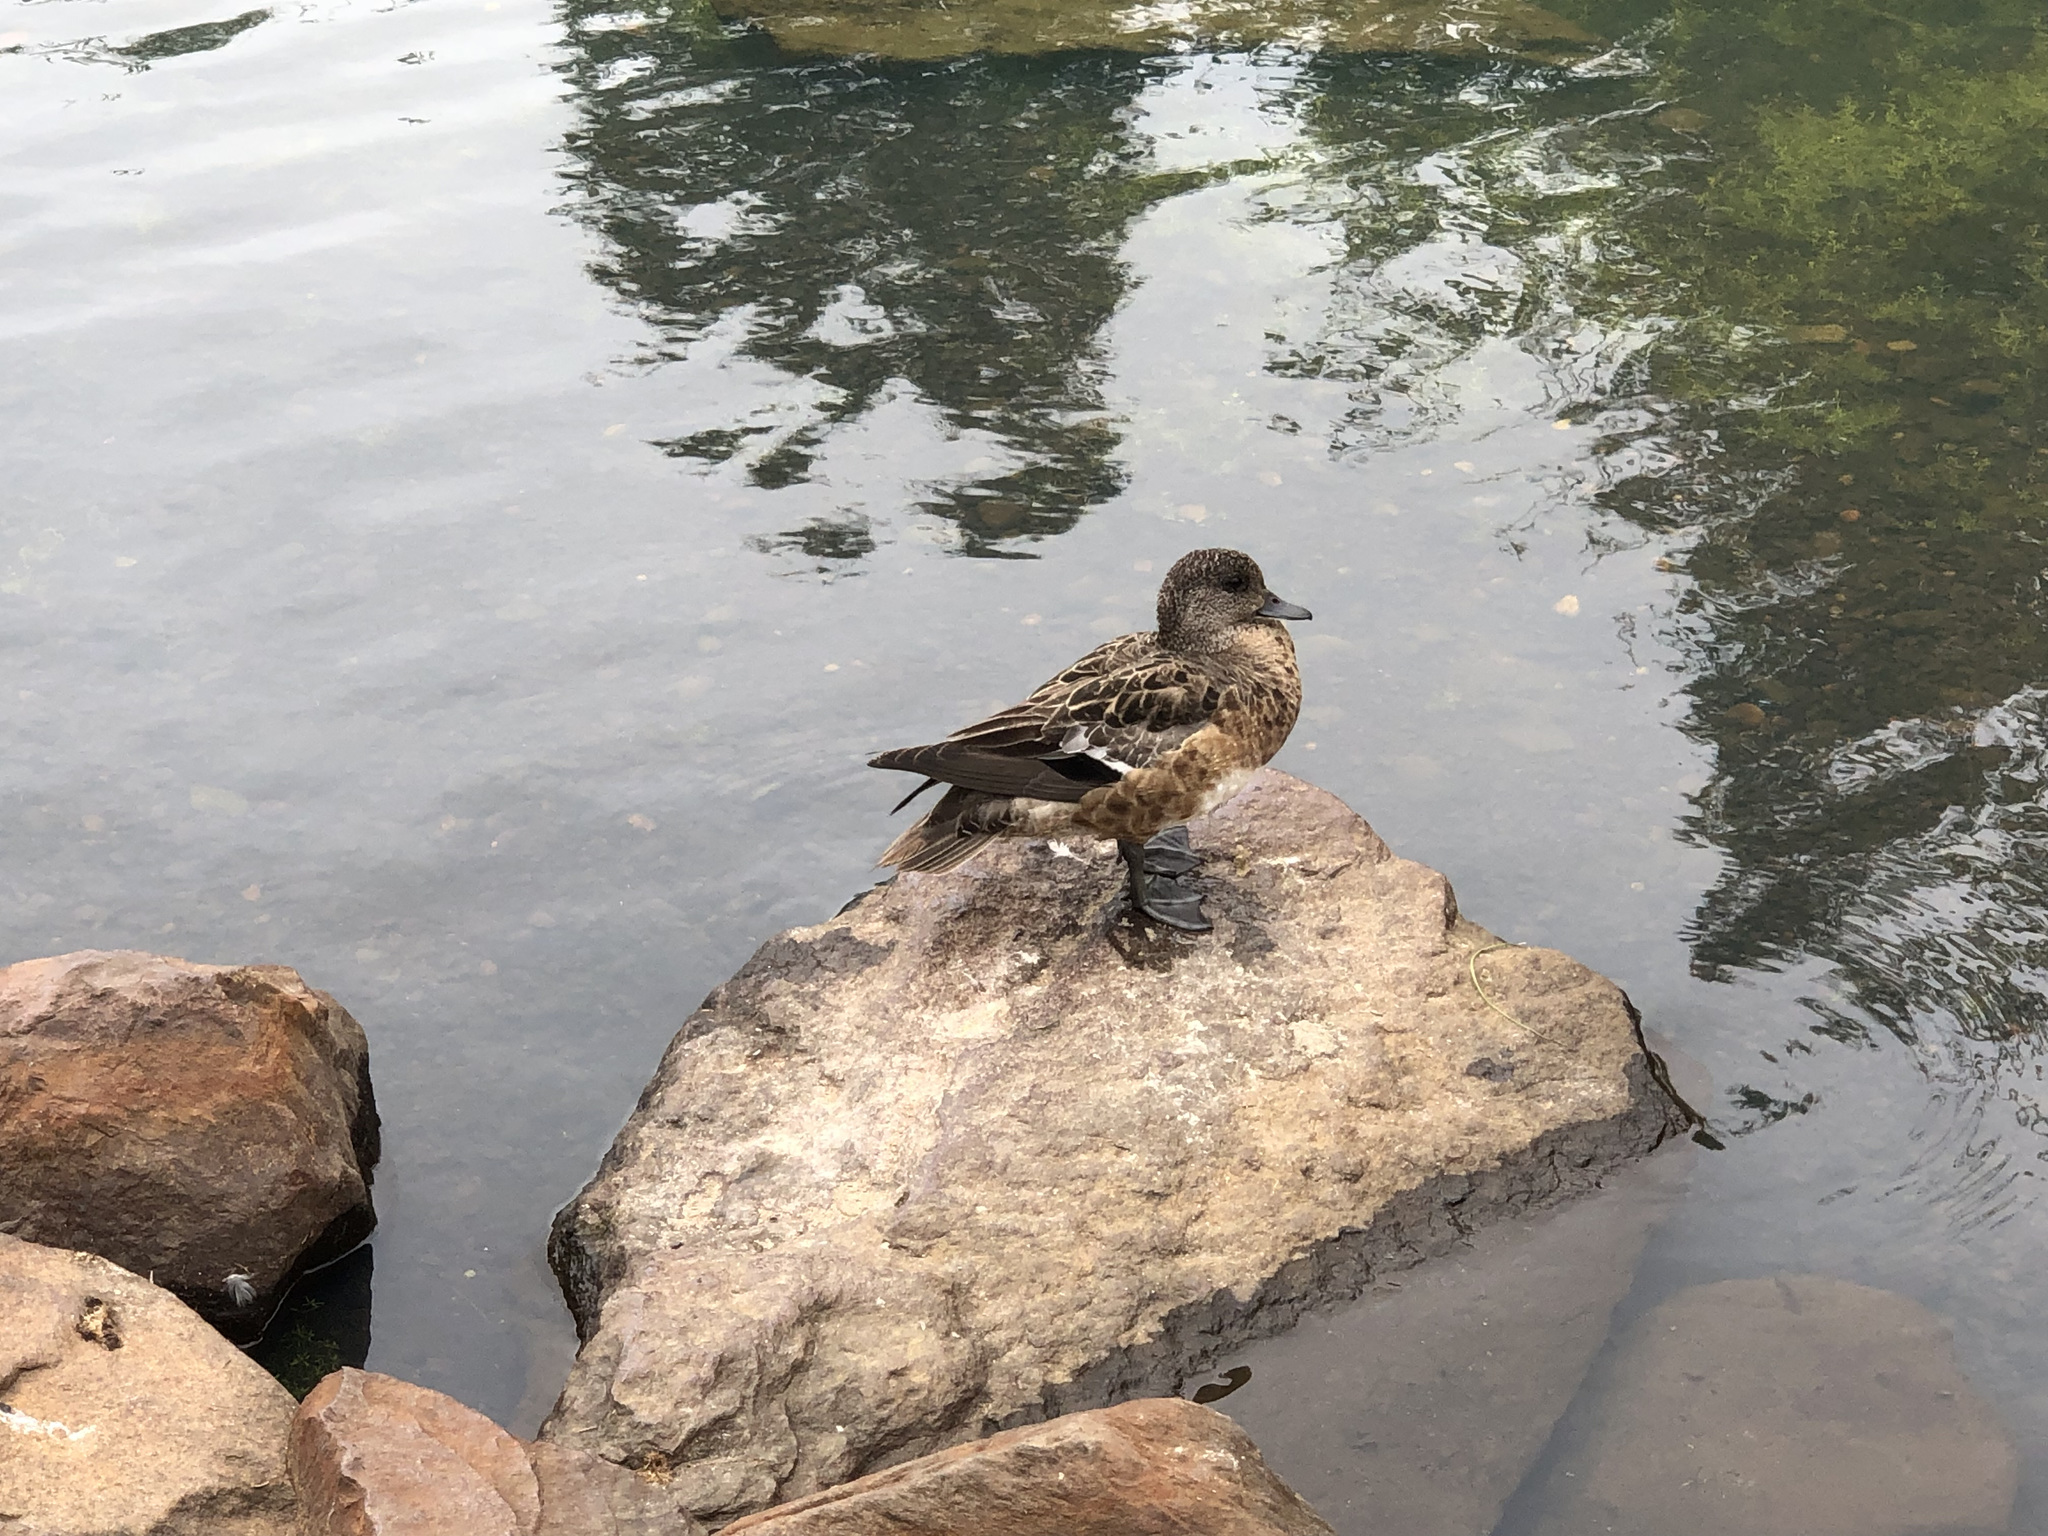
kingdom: Animalia
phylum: Chordata
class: Aves
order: Anseriformes
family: Anatidae
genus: Mareca
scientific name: Mareca americana
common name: American wigeon
